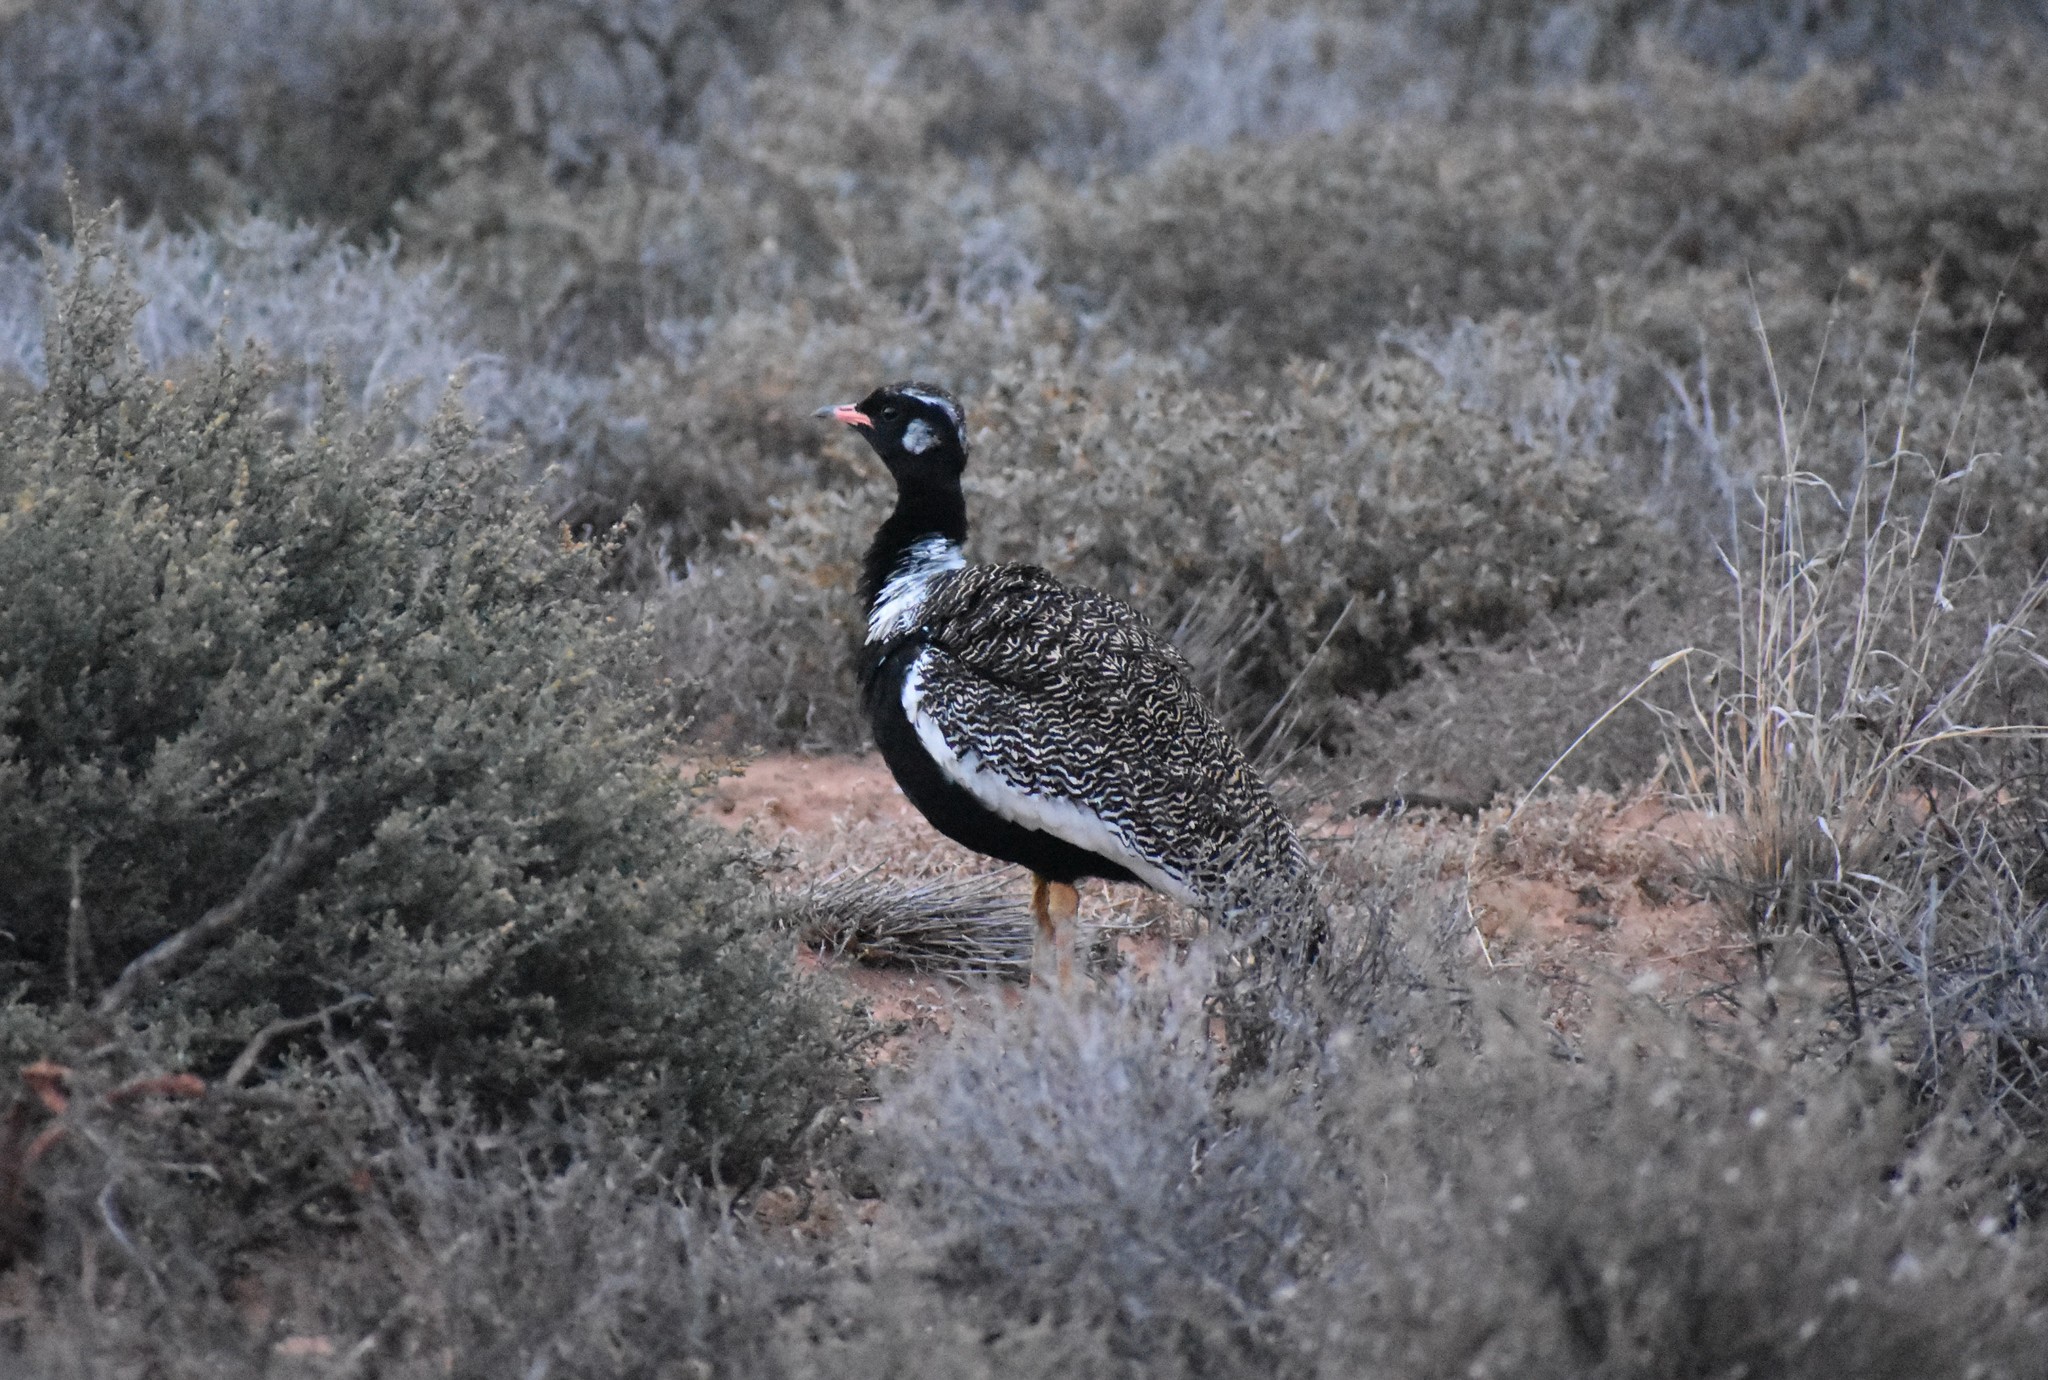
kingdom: Animalia
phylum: Chordata
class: Aves
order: Otidiformes
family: Otididae
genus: Afrotis
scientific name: Afrotis afra
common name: Southern black korhaan
